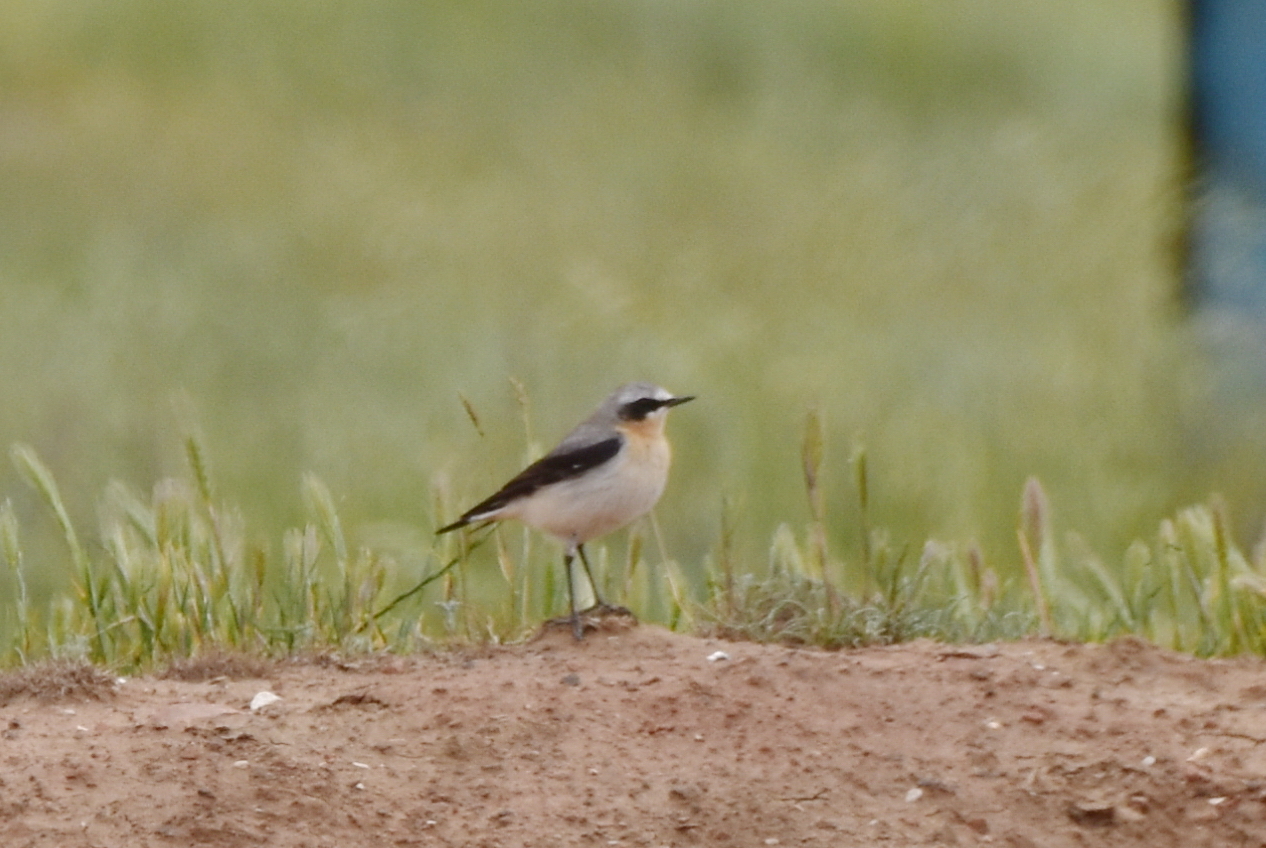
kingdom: Animalia
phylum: Chordata
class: Aves
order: Passeriformes
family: Muscicapidae
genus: Oenanthe
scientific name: Oenanthe oenanthe
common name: Northern wheatear
